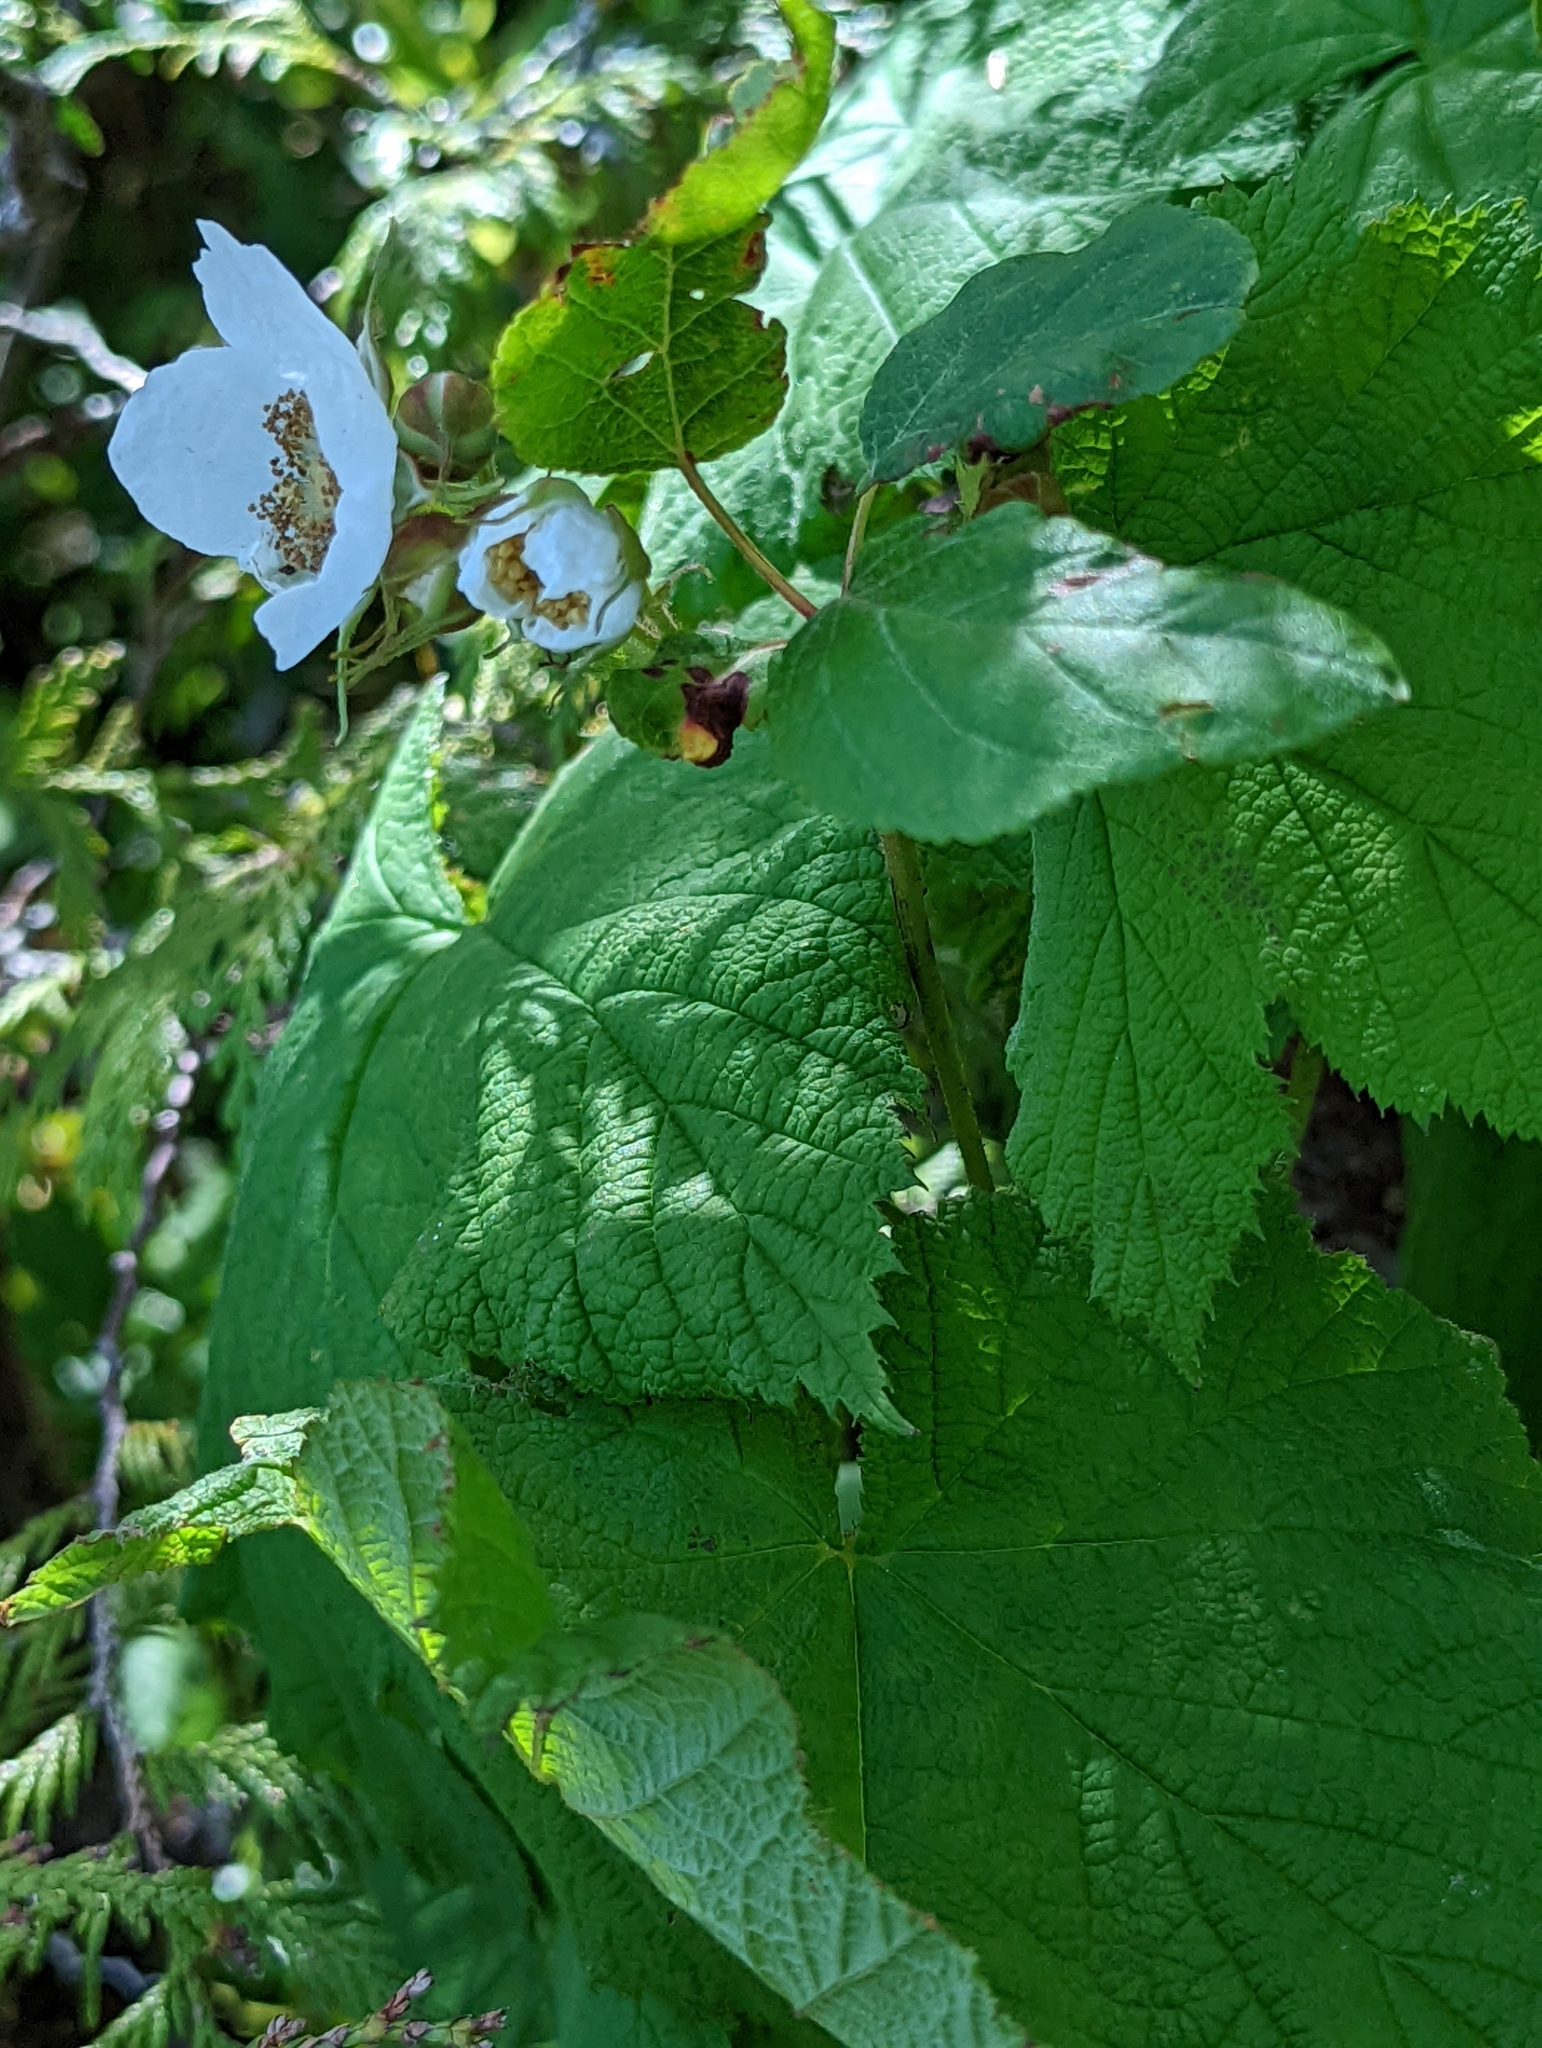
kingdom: Plantae
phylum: Tracheophyta
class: Magnoliopsida
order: Rosales
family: Rosaceae
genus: Rubus
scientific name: Rubus parviflorus
